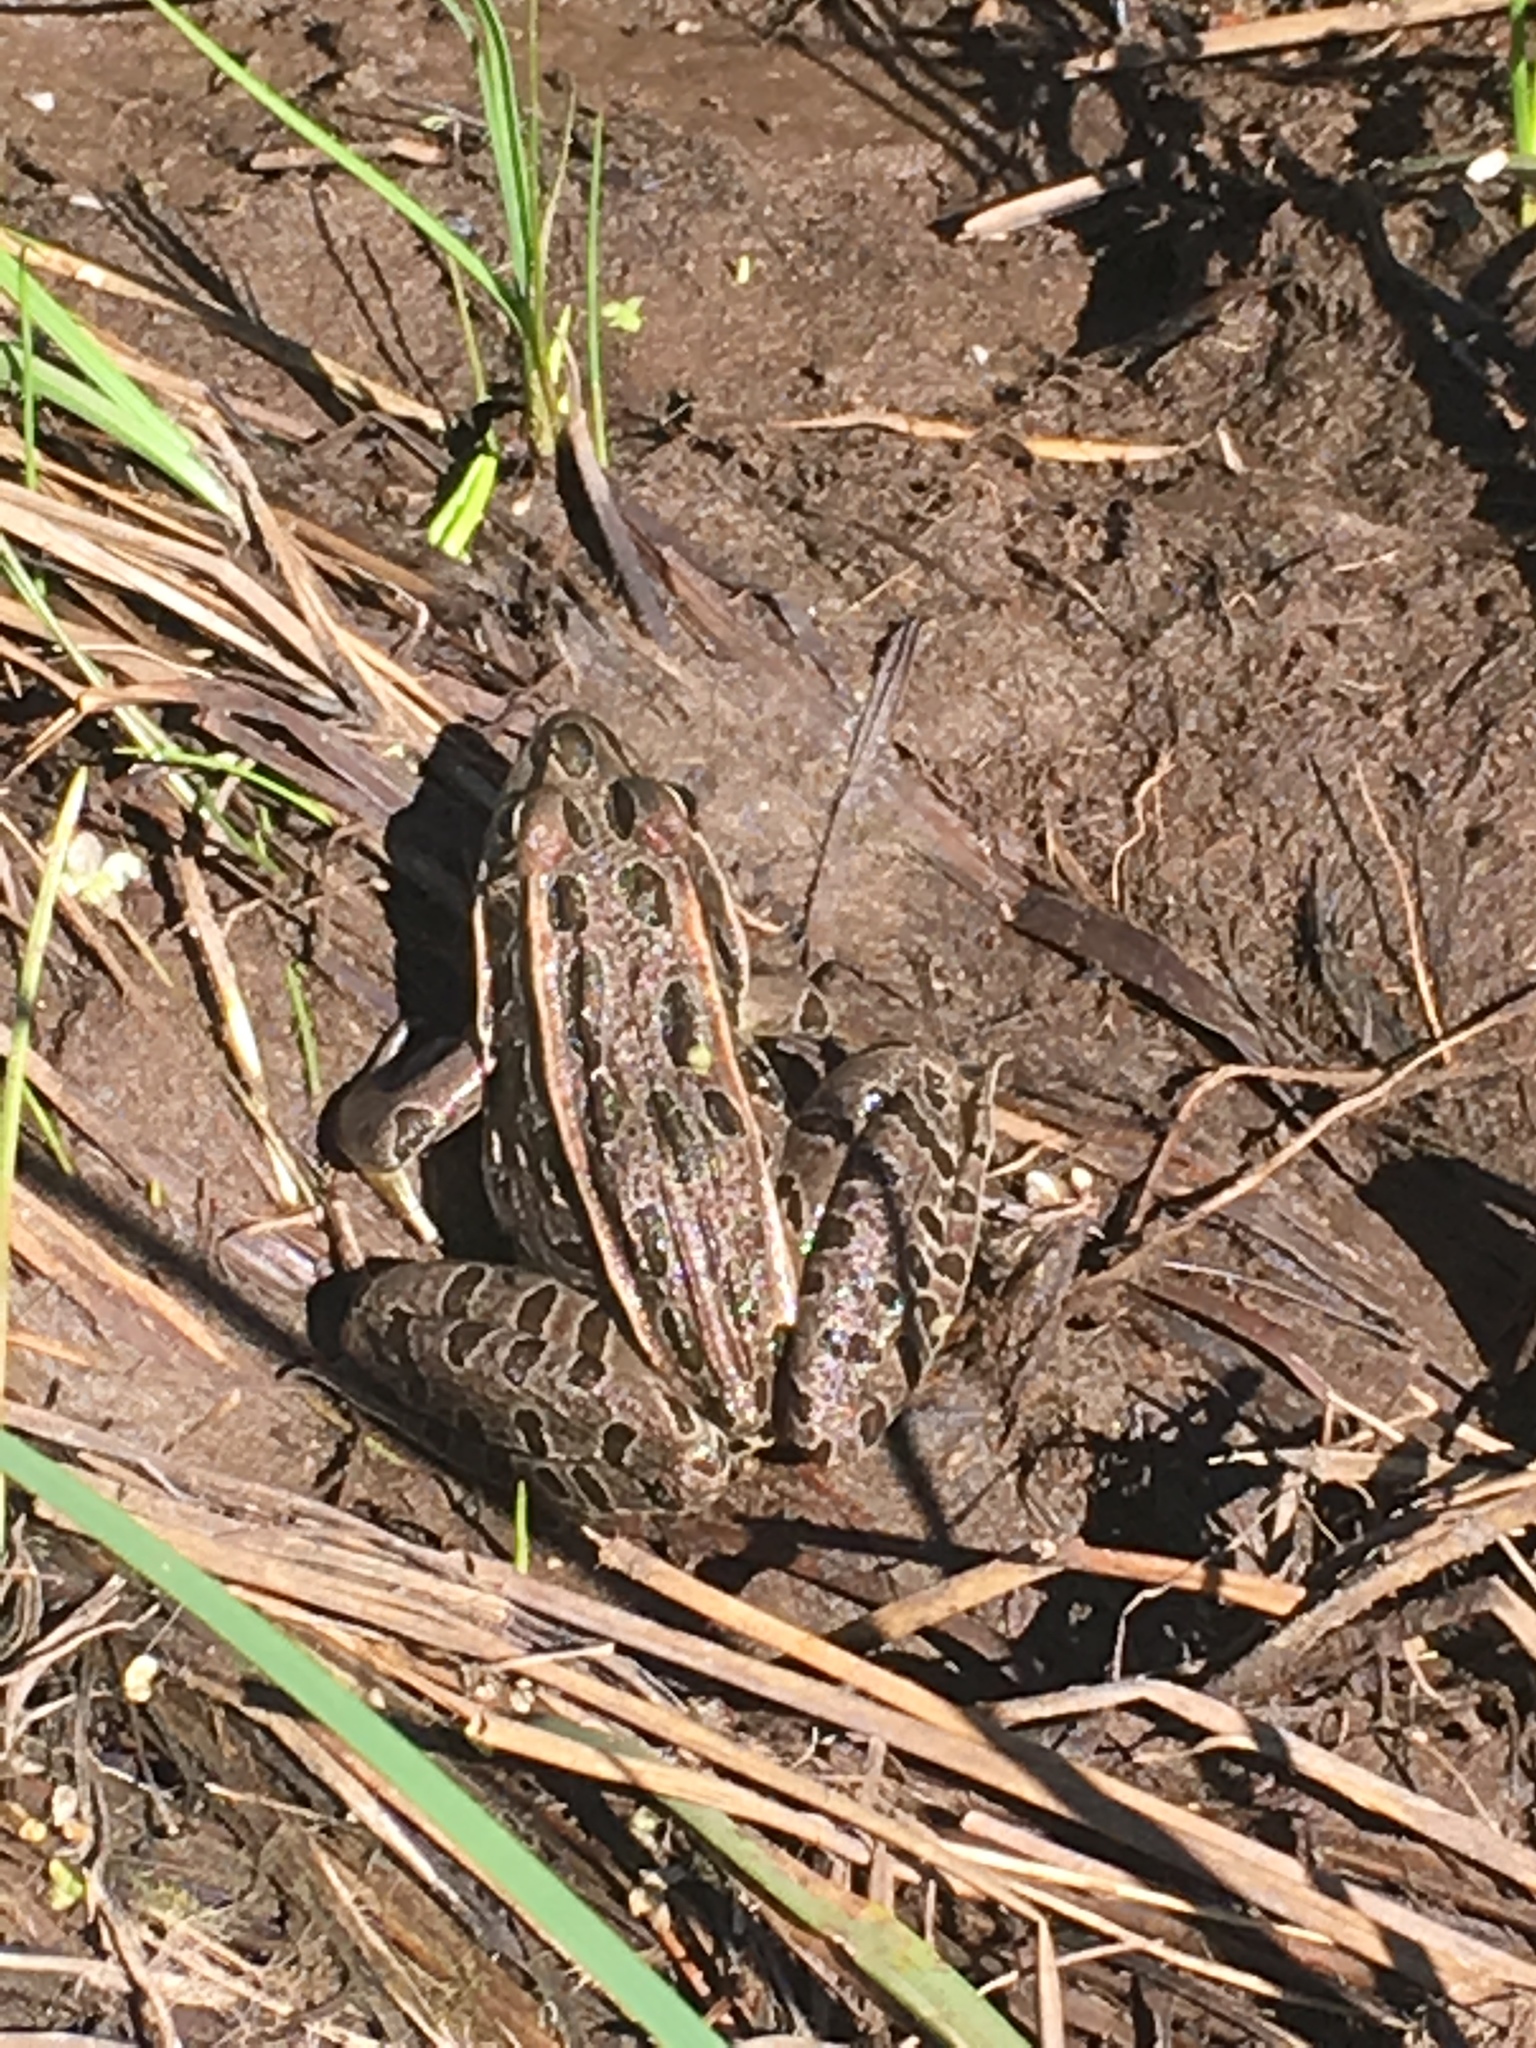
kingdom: Animalia
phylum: Chordata
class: Amphibia
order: Anura
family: Ranidae
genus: Lithobates
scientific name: Lithobates pipiens
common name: Northern leopard frog
